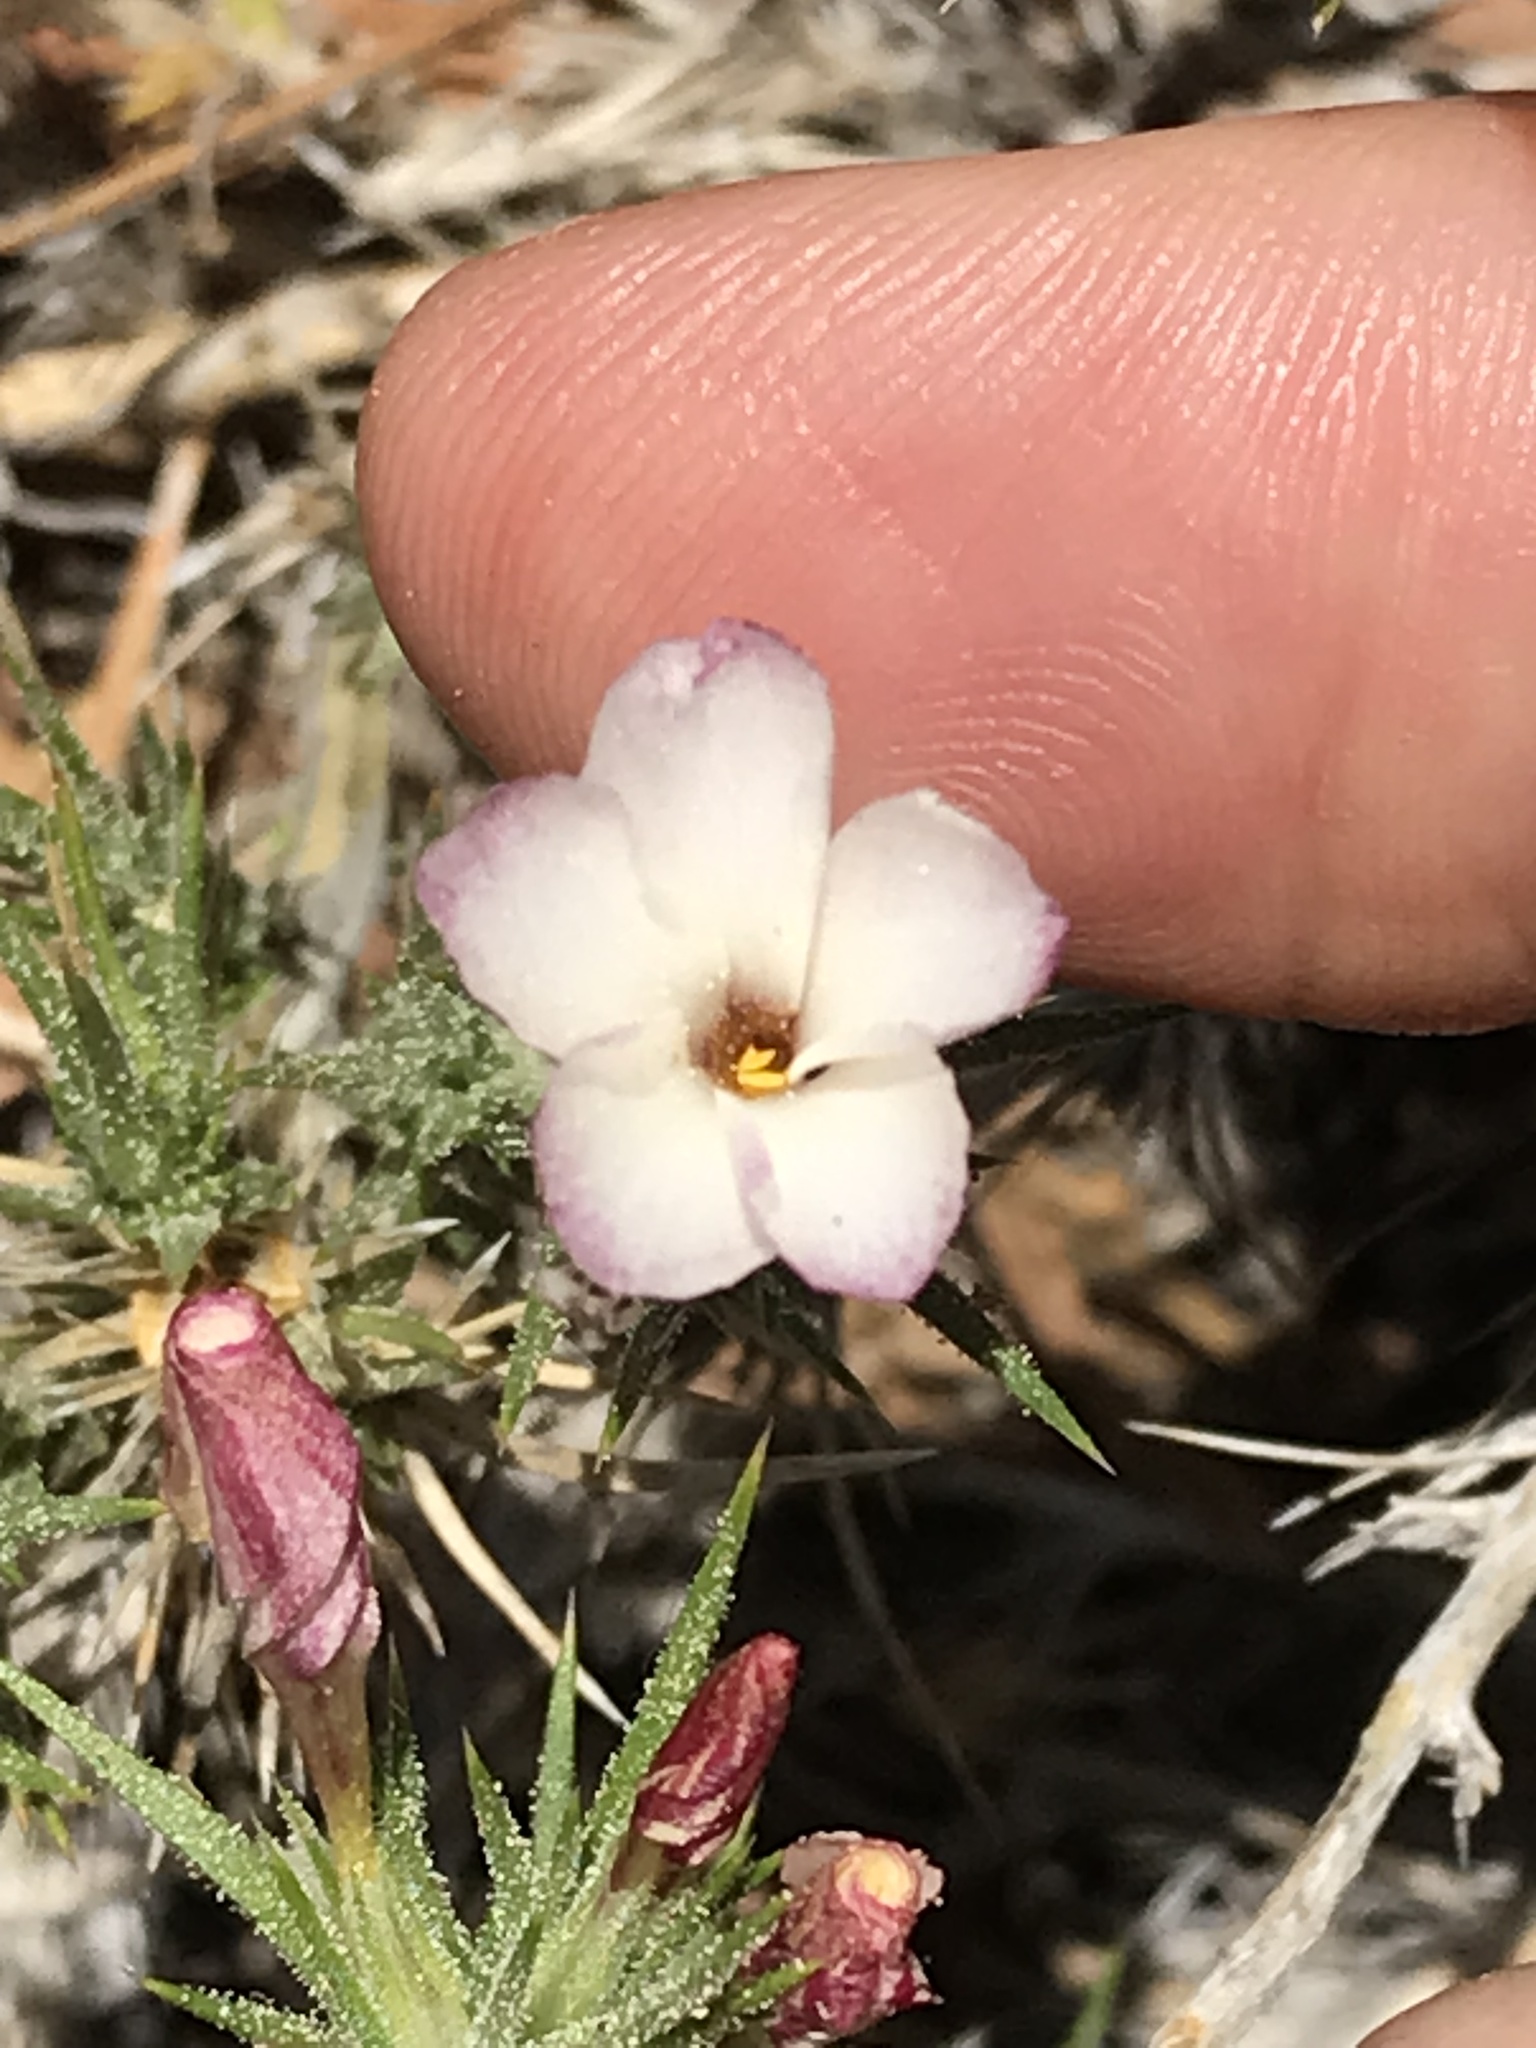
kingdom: Plantae
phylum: Tracheophyta
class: Magnoliopsida
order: Ericales
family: Polemoniaceae
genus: Linanthus
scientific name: Linanthus pungens
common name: Granite prickly phlox
